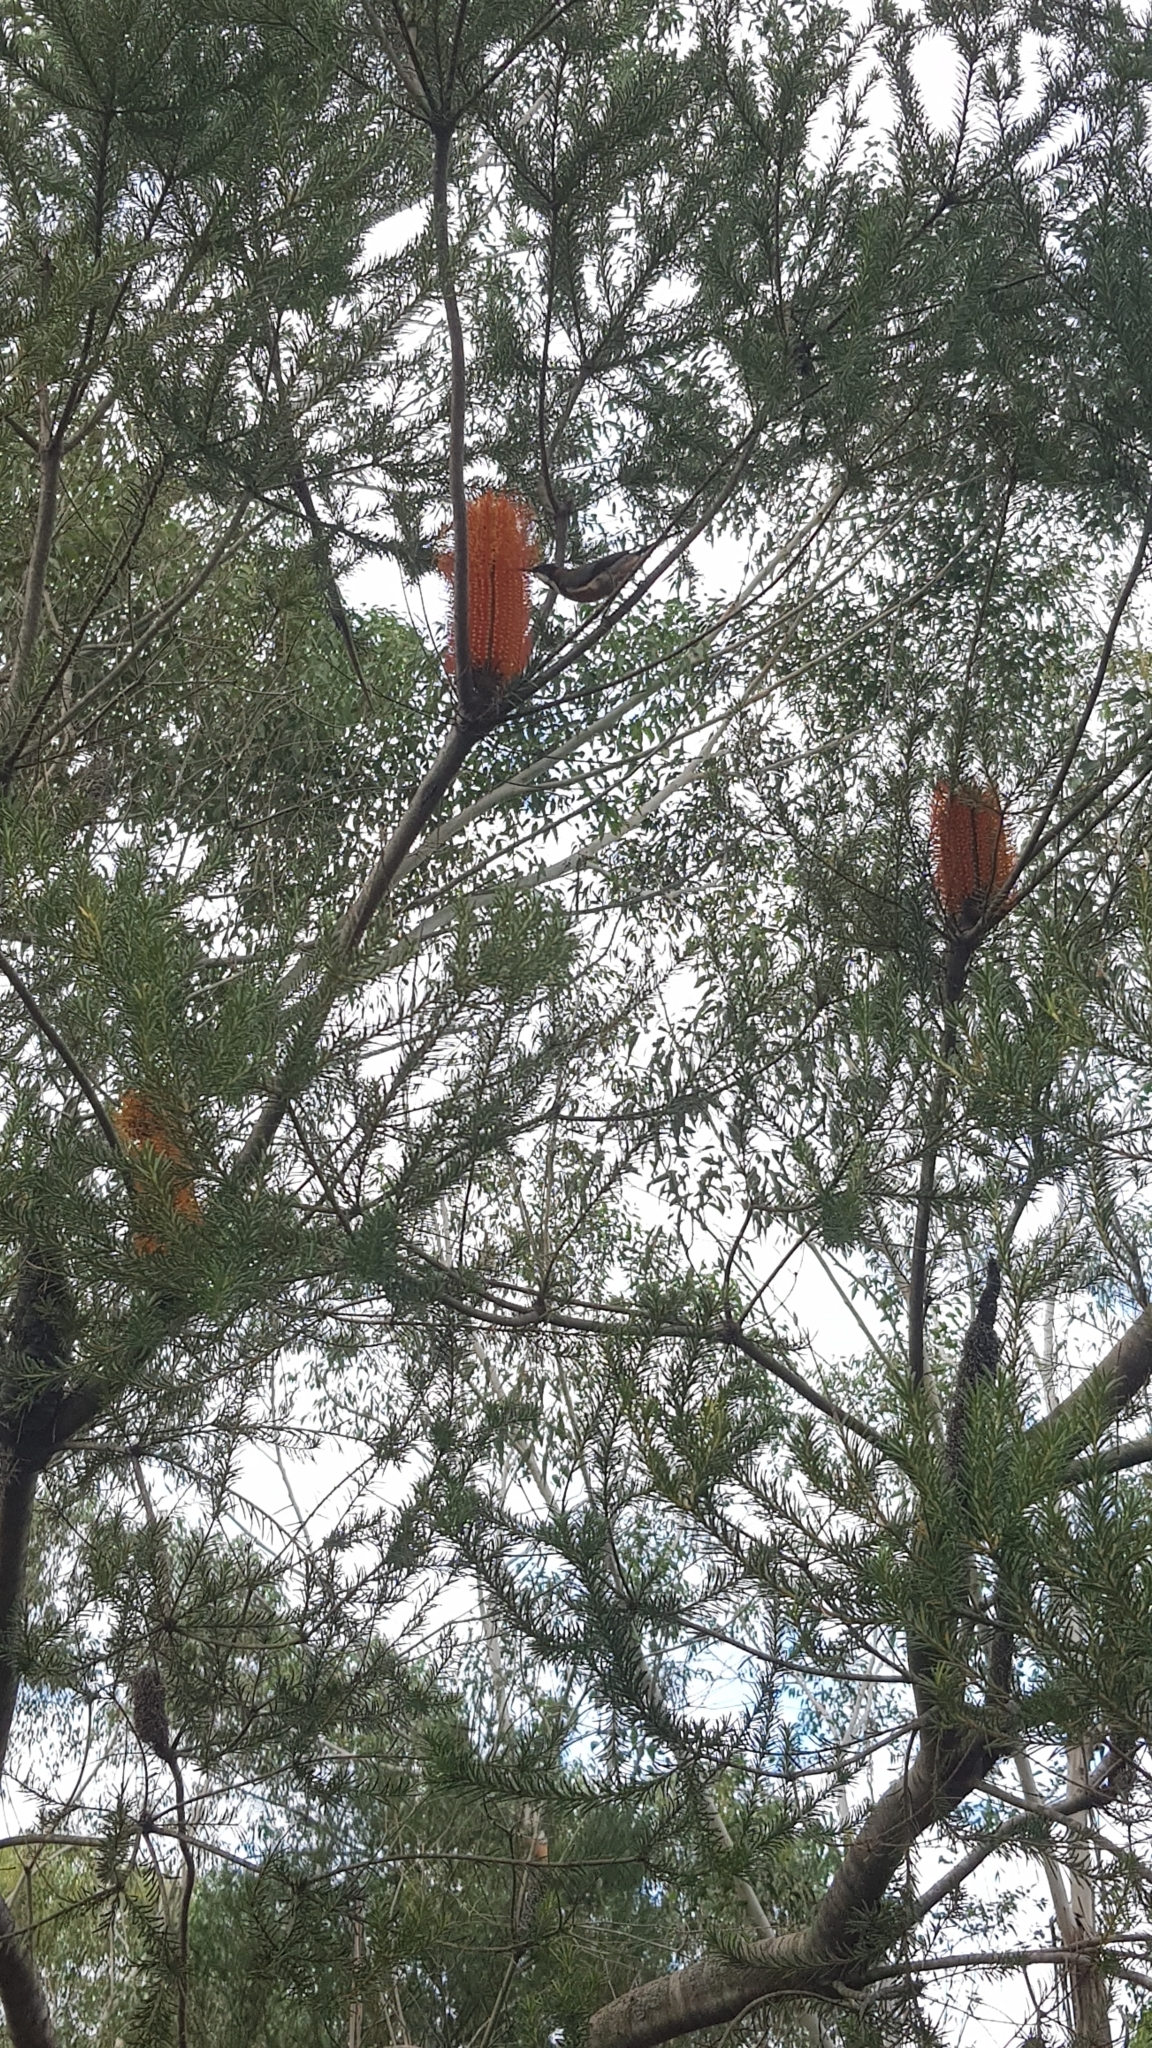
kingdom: Animalia
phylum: Chordata
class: Aves
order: Passeriformes
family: Meliphagidae
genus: Acanthorhynchus
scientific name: Acanthorhynchus tenuirostris
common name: Eastern spinebill
